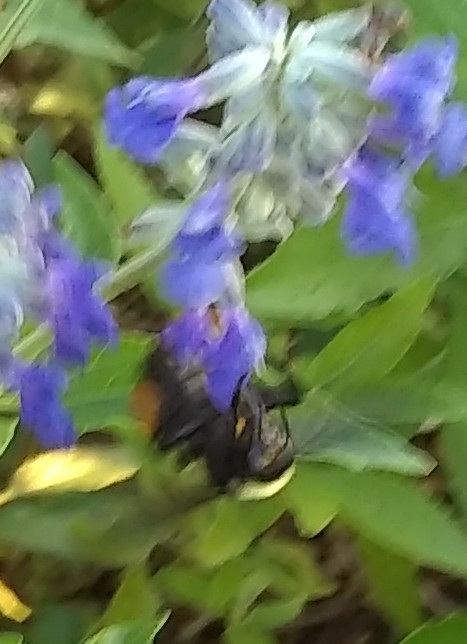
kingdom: Animalia
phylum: Arthropoda
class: Insecta
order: Hymenoptera
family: Apidae
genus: Bombus
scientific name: Bombus pensylvanicus
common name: Bumble bee
